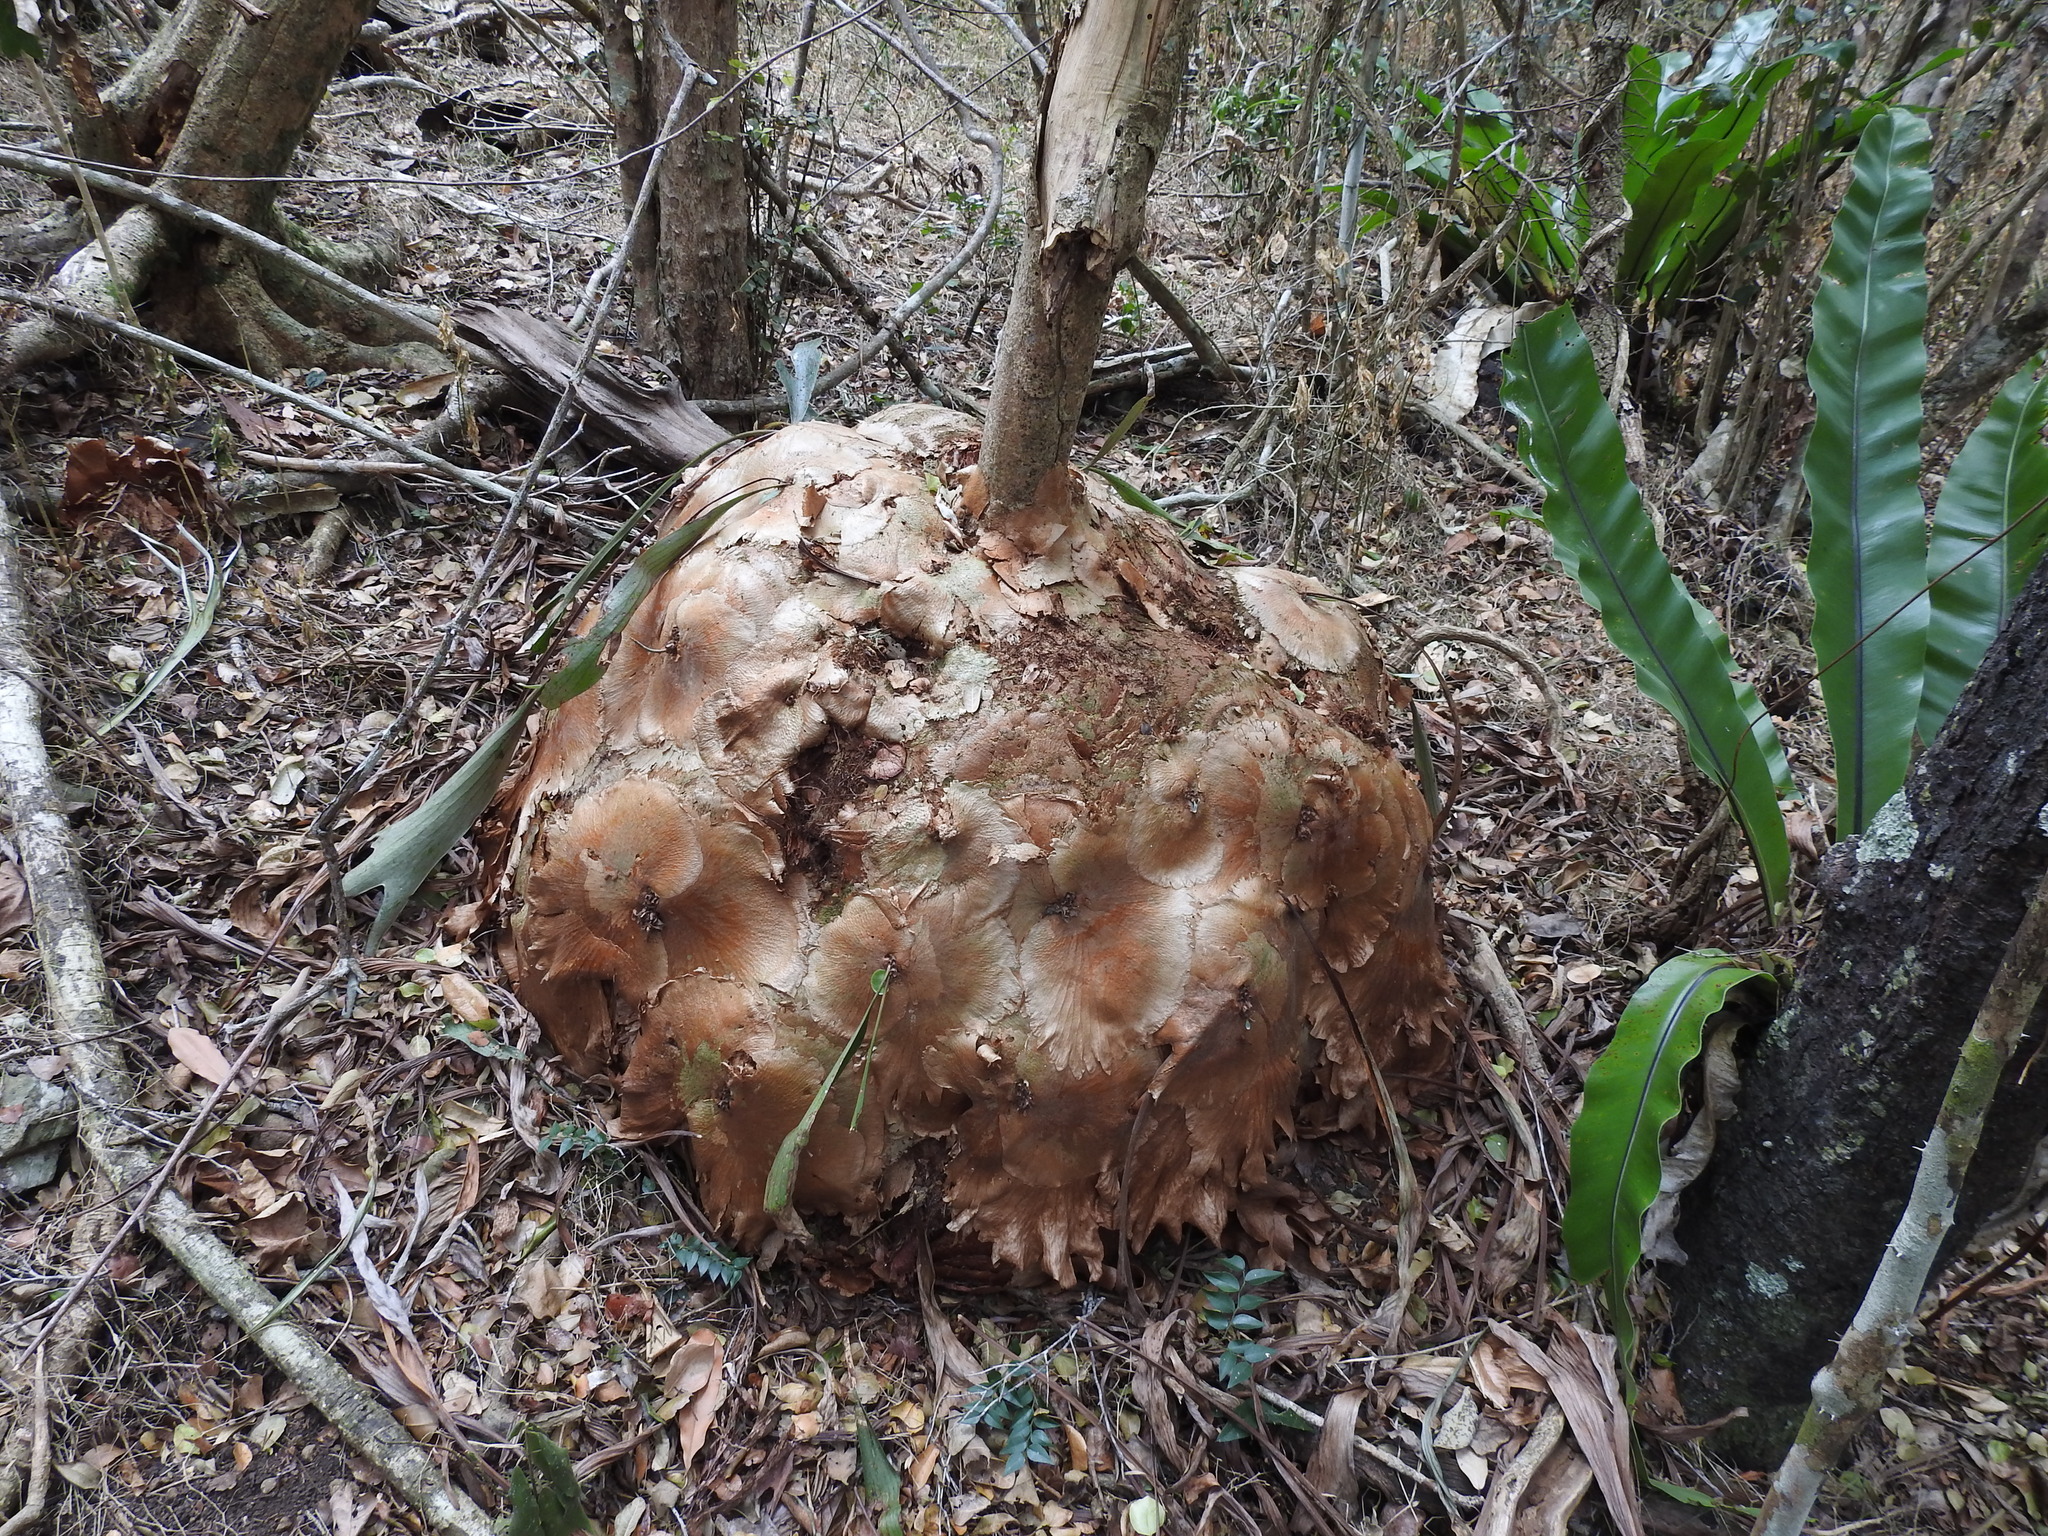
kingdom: Plantae
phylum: Tracheophyta
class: Polypodiopsida
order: Polypodiales
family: Polypodiaceae
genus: Platycerium
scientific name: Platycerium bifurcatum
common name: Elkhorn fern
